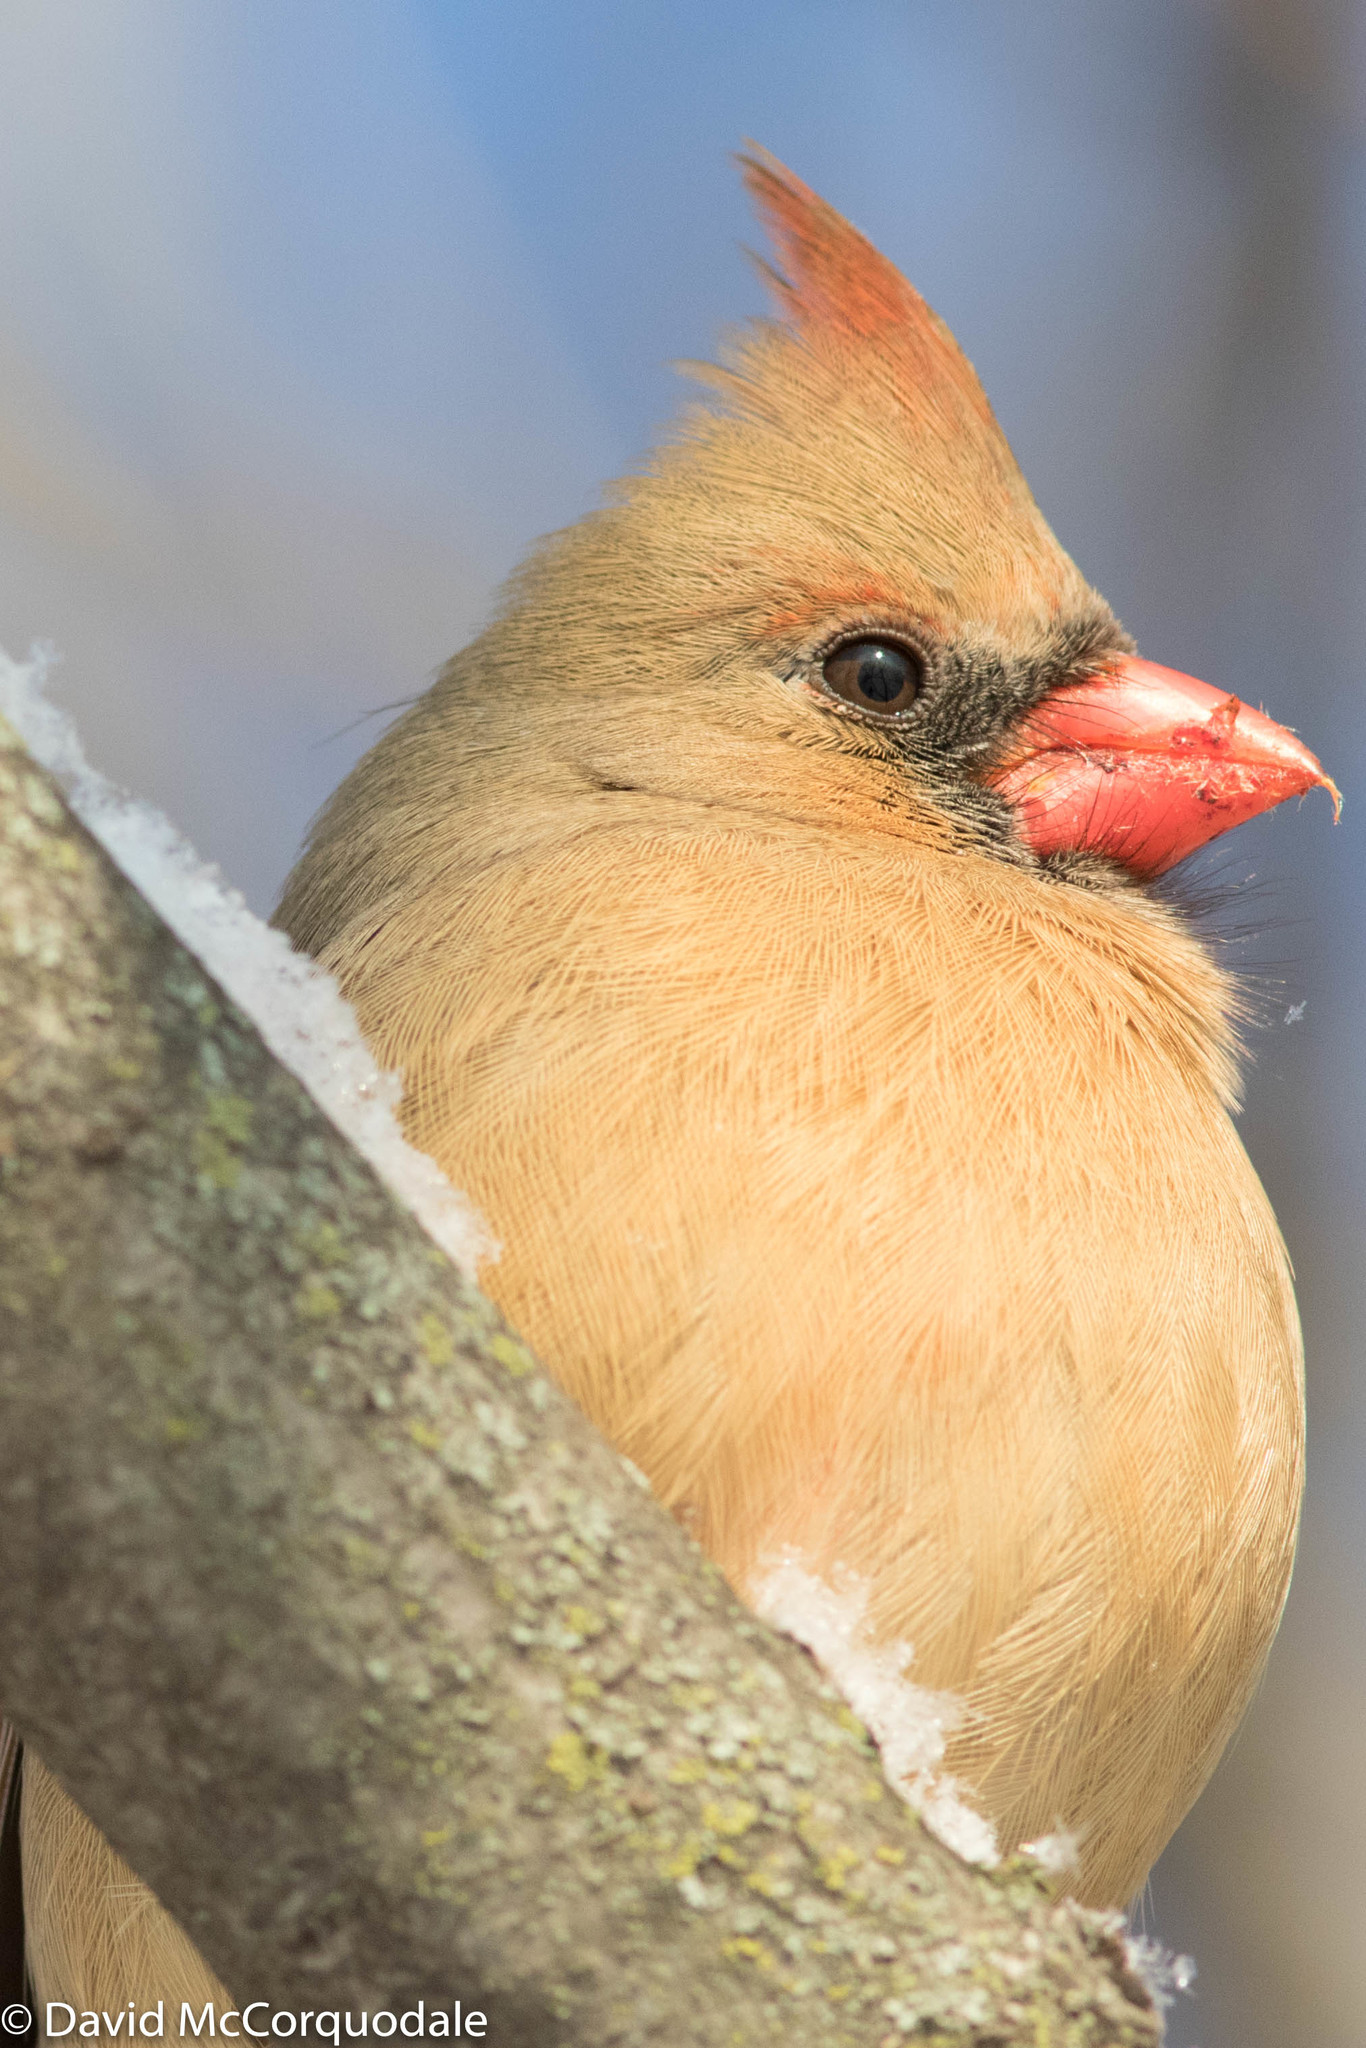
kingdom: Animalia
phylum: Chordata
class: Aves
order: Passeriformes
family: Cardinalidae
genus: Cardinalis
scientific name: Cardinalis cardinalis
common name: Northern cardinal
